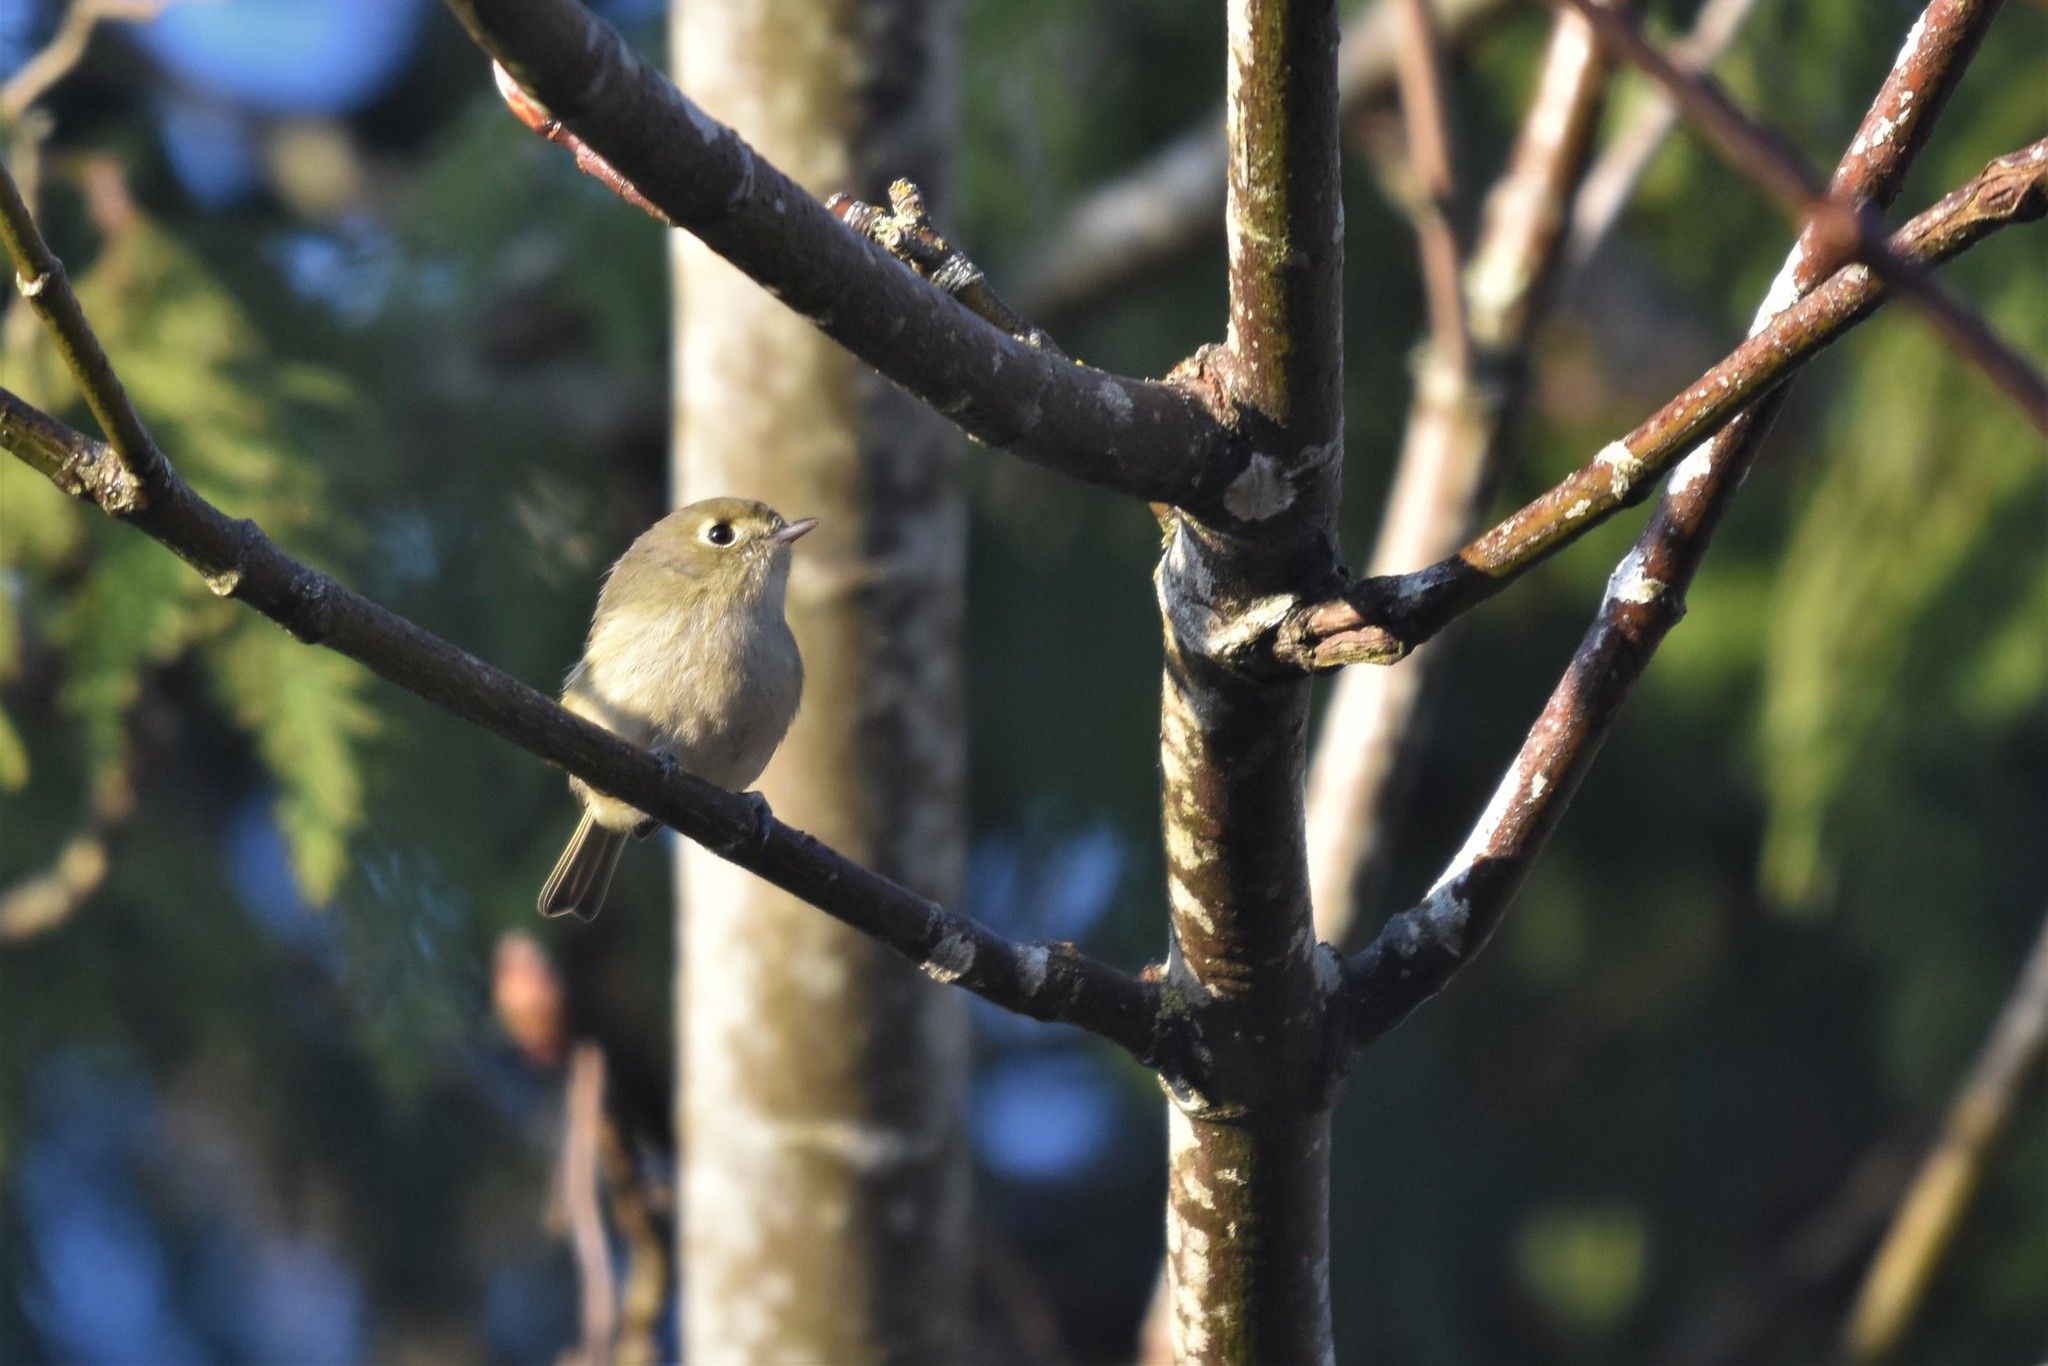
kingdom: Animalia
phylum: Chordata
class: Aves
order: Passeriformes
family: Vireonidae
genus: Vireo
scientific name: Vireo huttoni
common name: Hutton's vireo
